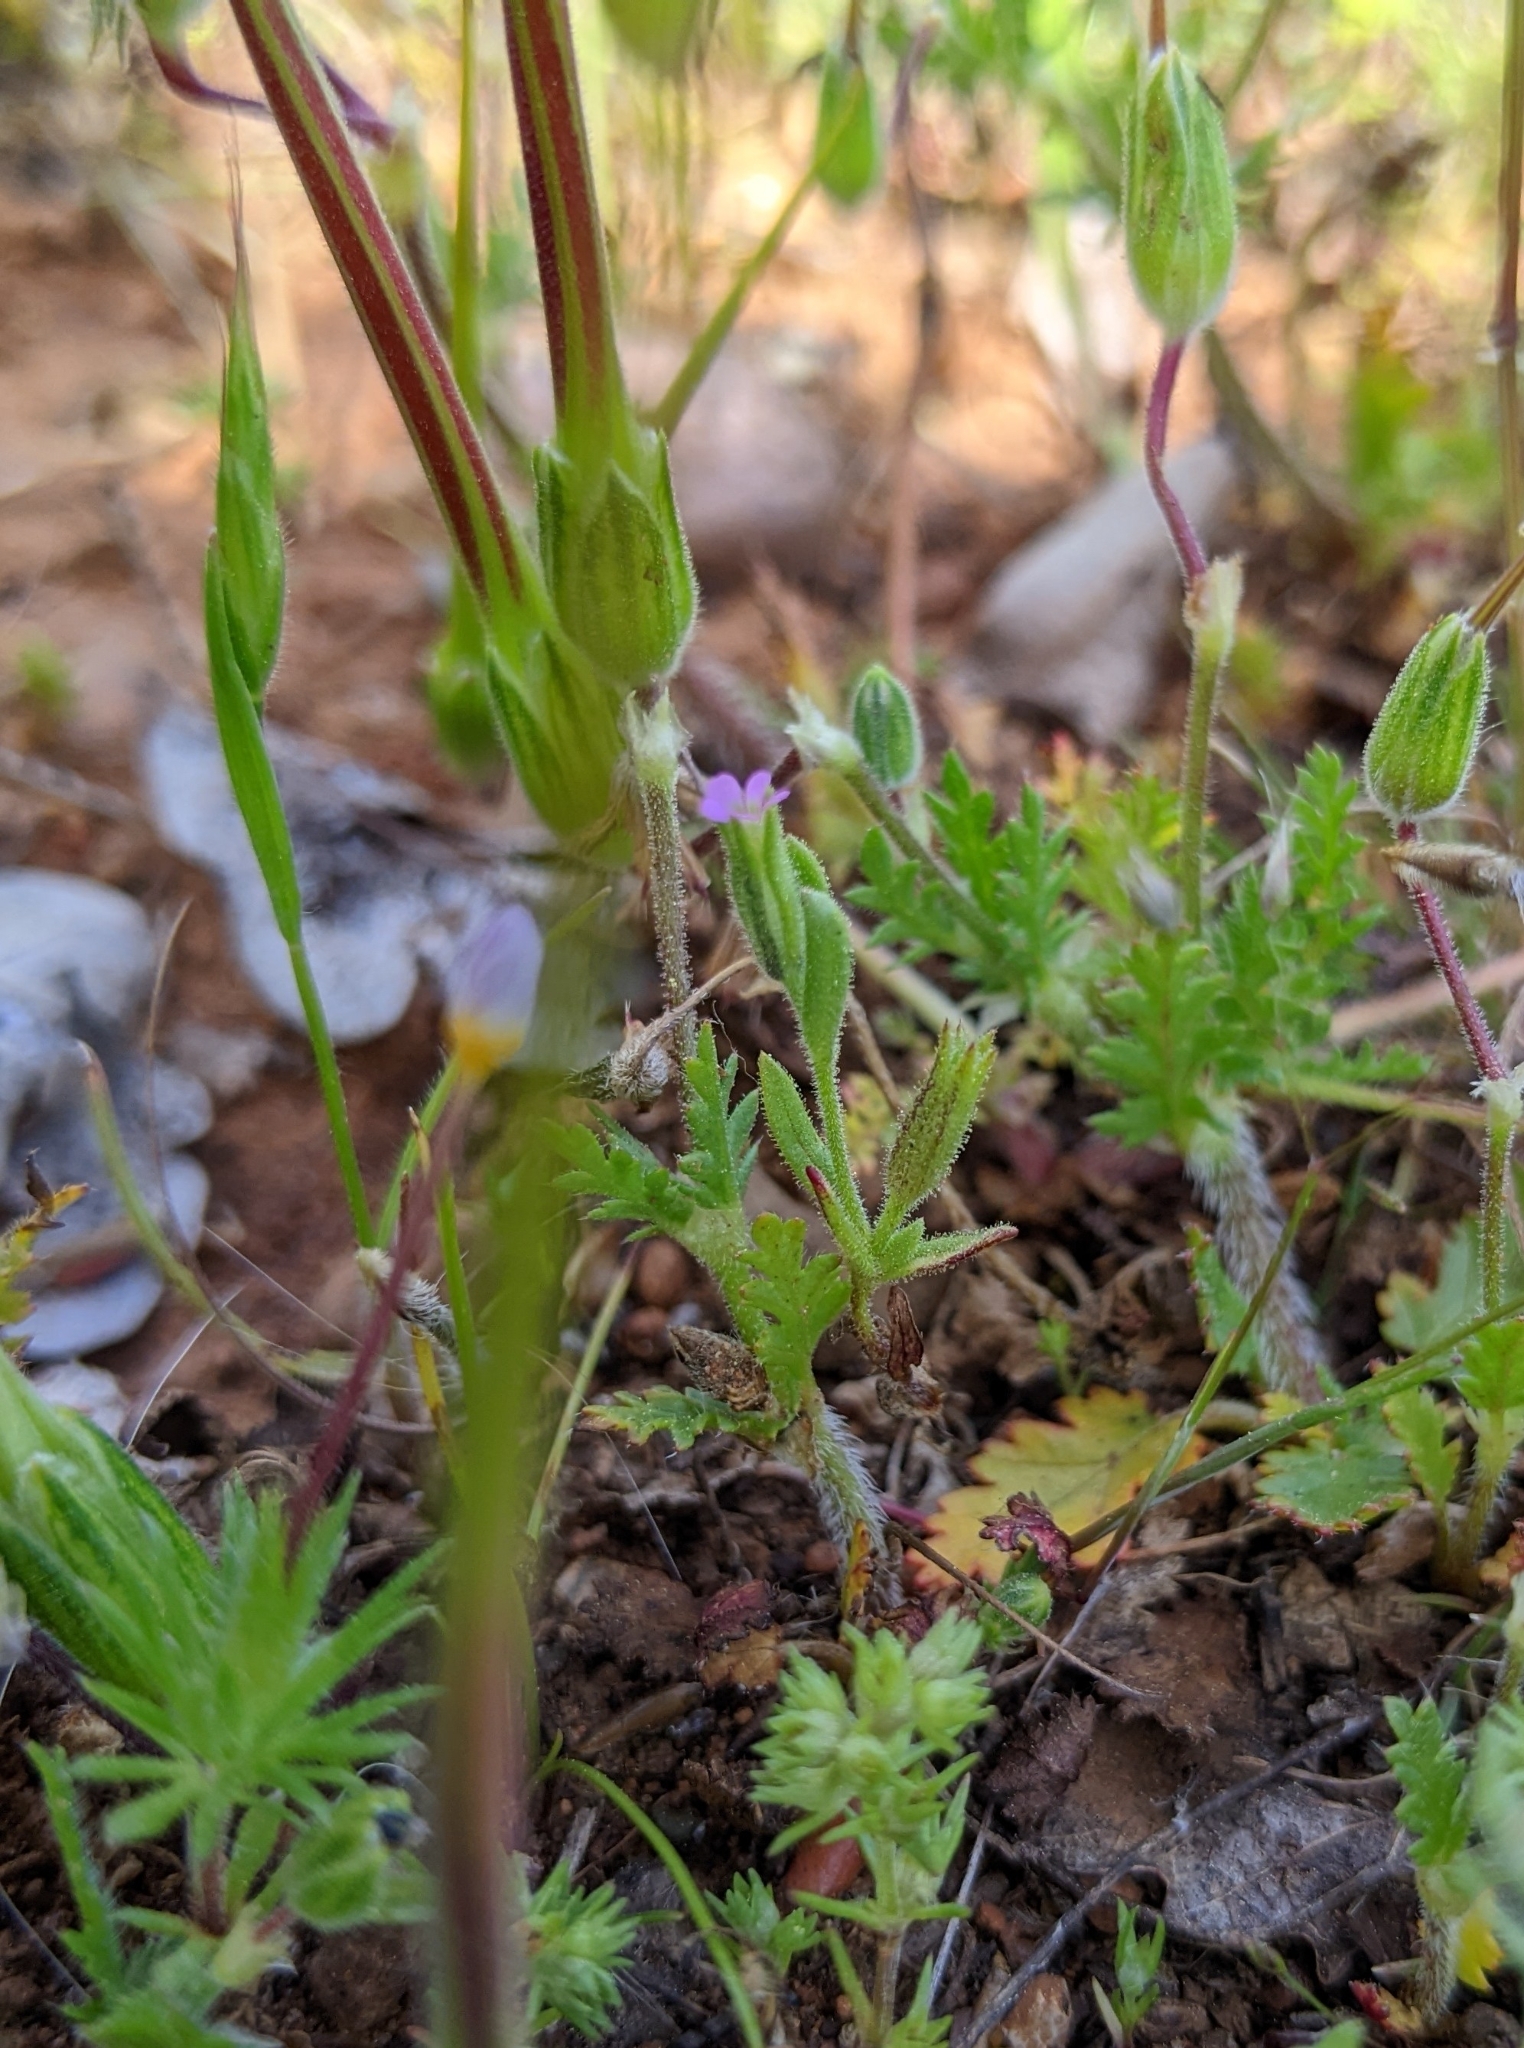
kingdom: Plantae
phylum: Tracheophyta
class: Magnoliopsida
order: Ericales
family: Polemoniaceae
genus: Phlox
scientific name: Phlox gracilis
